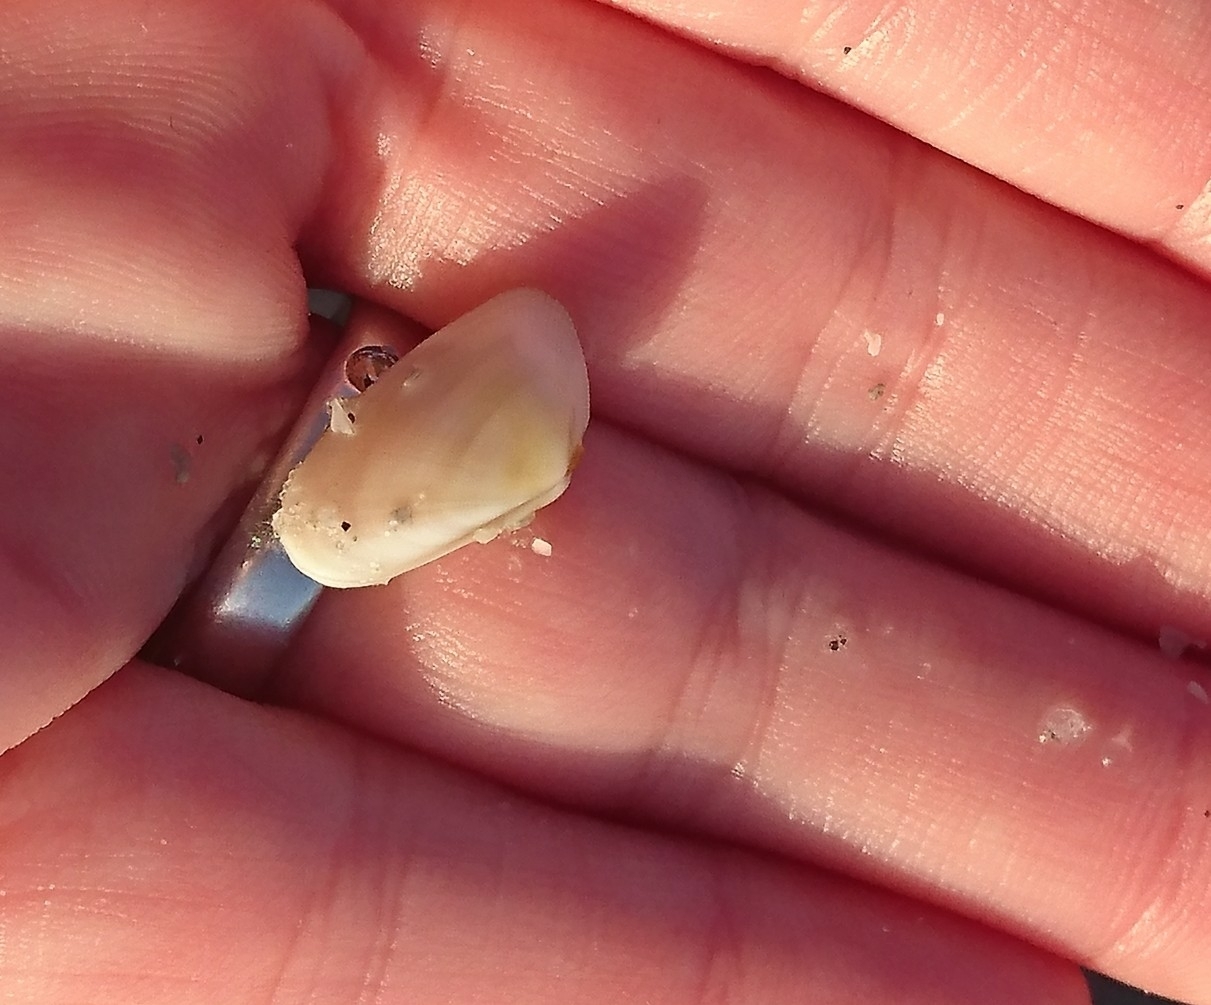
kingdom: Animalia
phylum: Mollusca
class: Bivalvia
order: Cardiida
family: Donacidae
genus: Donax
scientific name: Donax variabilis
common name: Butterfly shell
